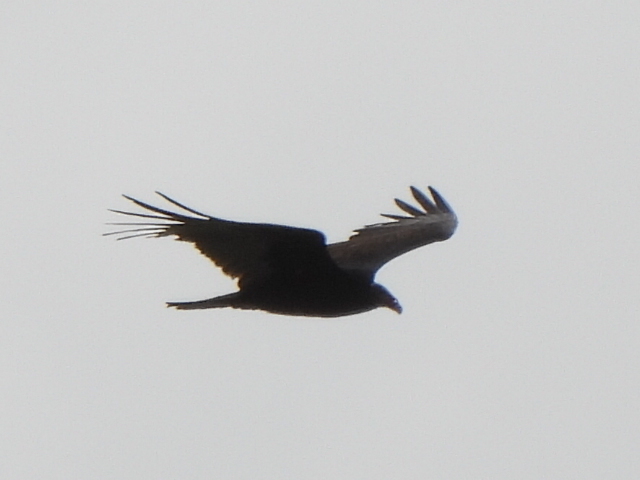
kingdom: Animalia
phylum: Chordata
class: Aves
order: Accipitriformes
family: Cathartidae
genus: Cathartes
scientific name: Cathartes aura
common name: Turkey vulture
